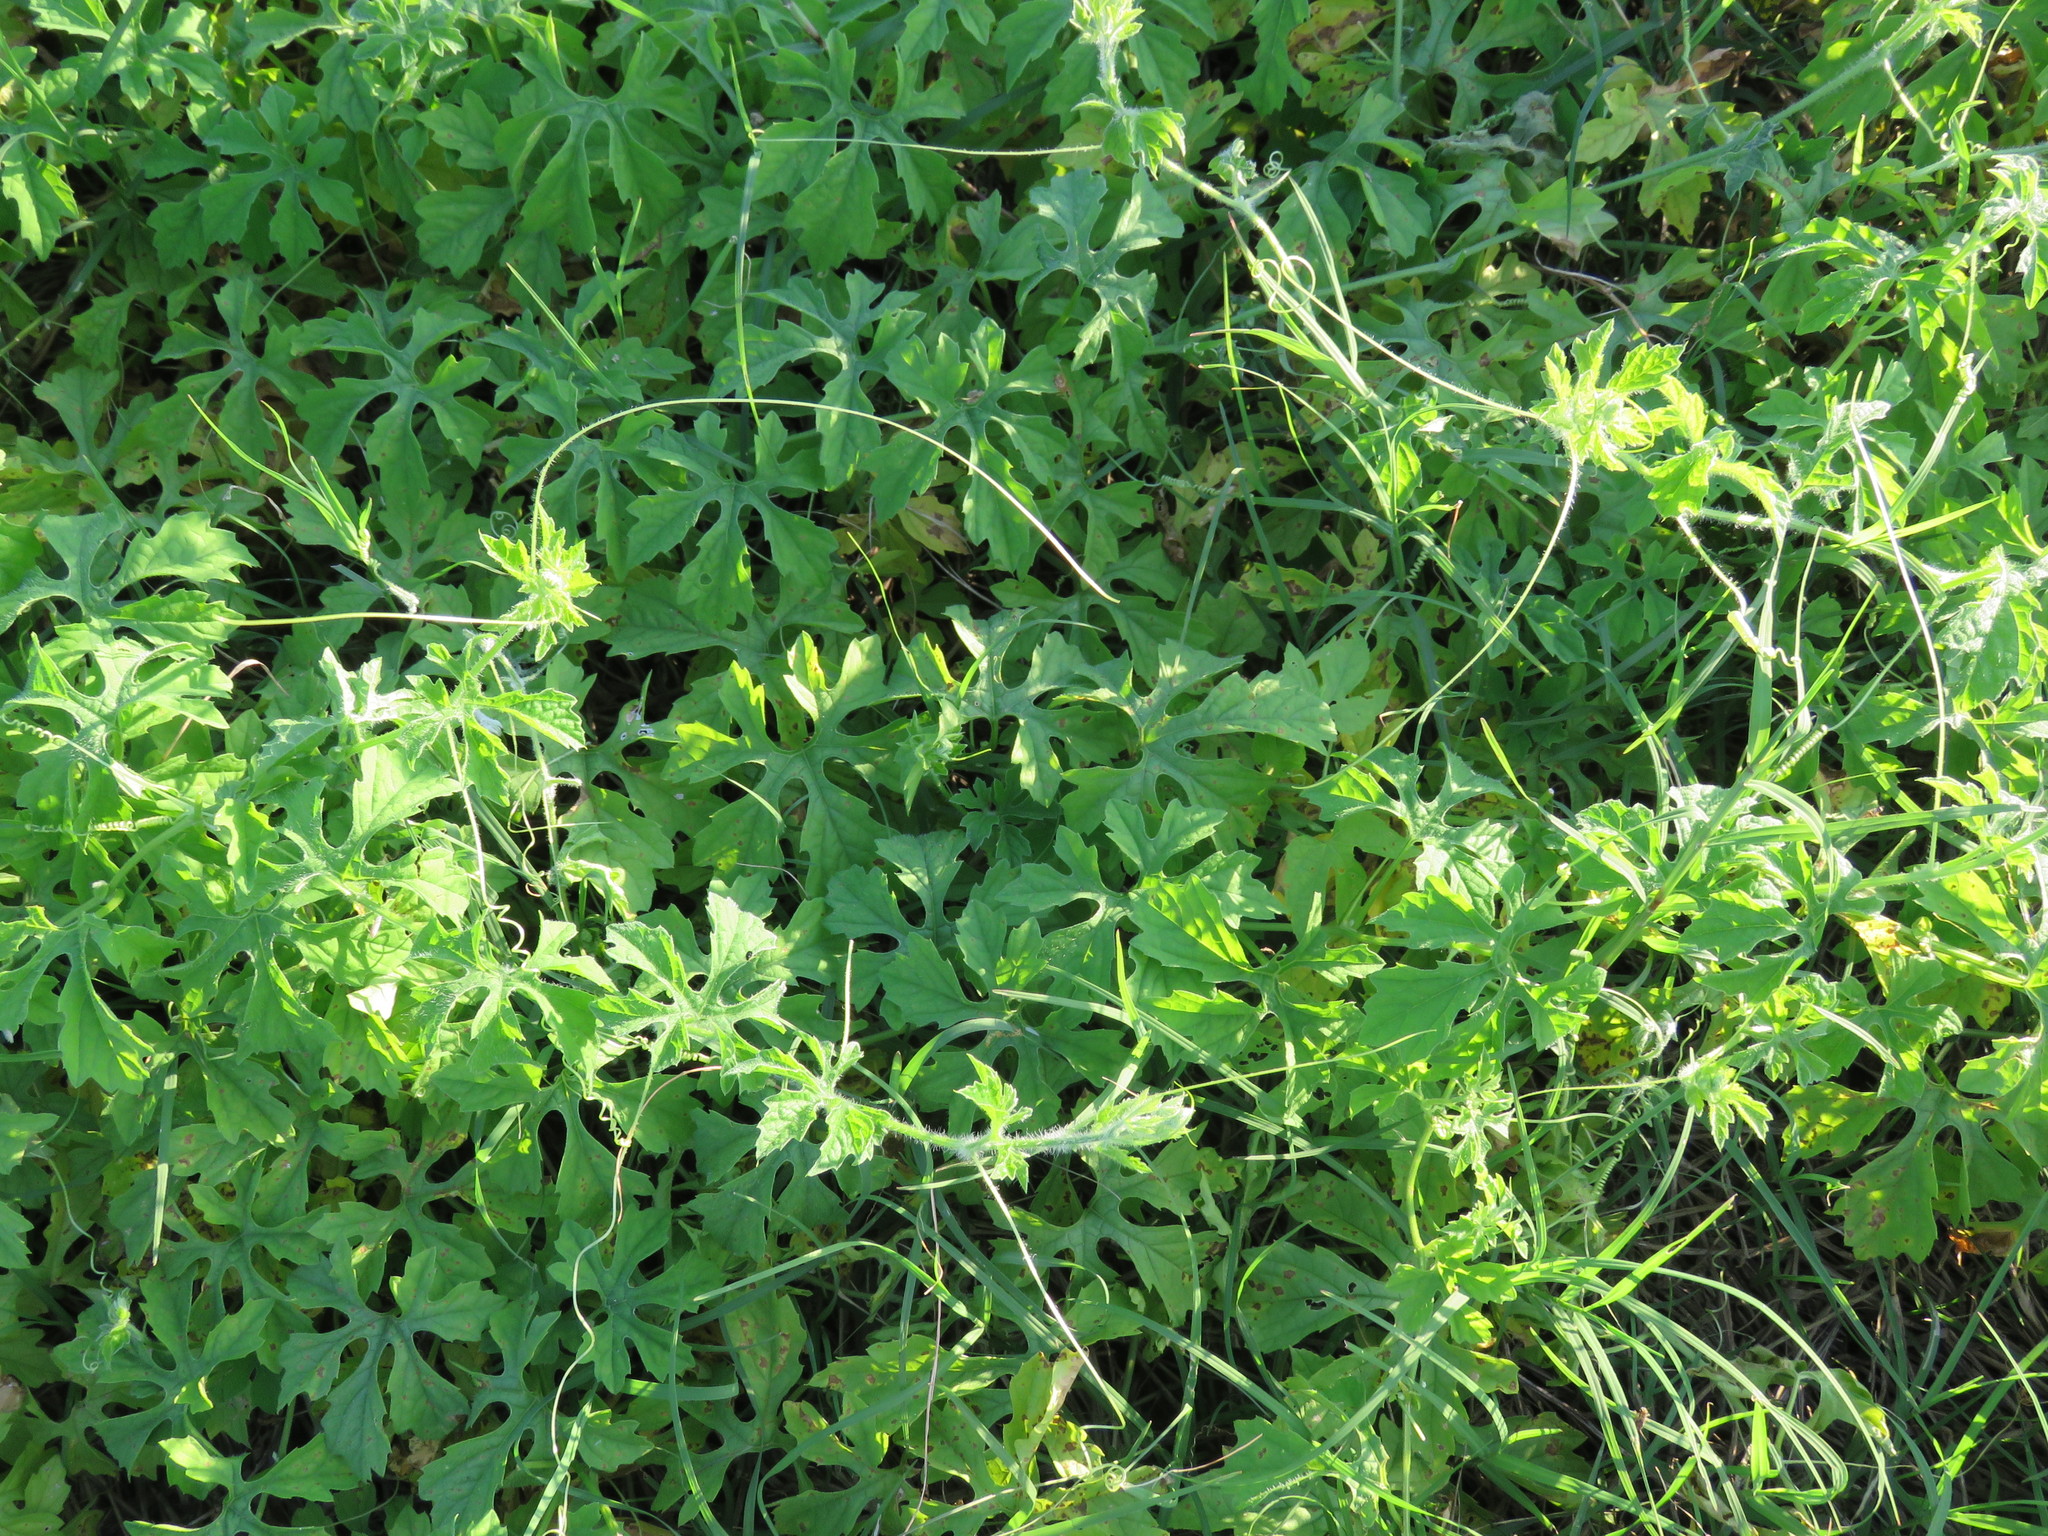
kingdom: Plantae
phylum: Tracheophyta
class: Magnoliopsida
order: Cucurbitales
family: Cucurbitaceae
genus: Momordica
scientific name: Momordica charantia
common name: Balsampear
